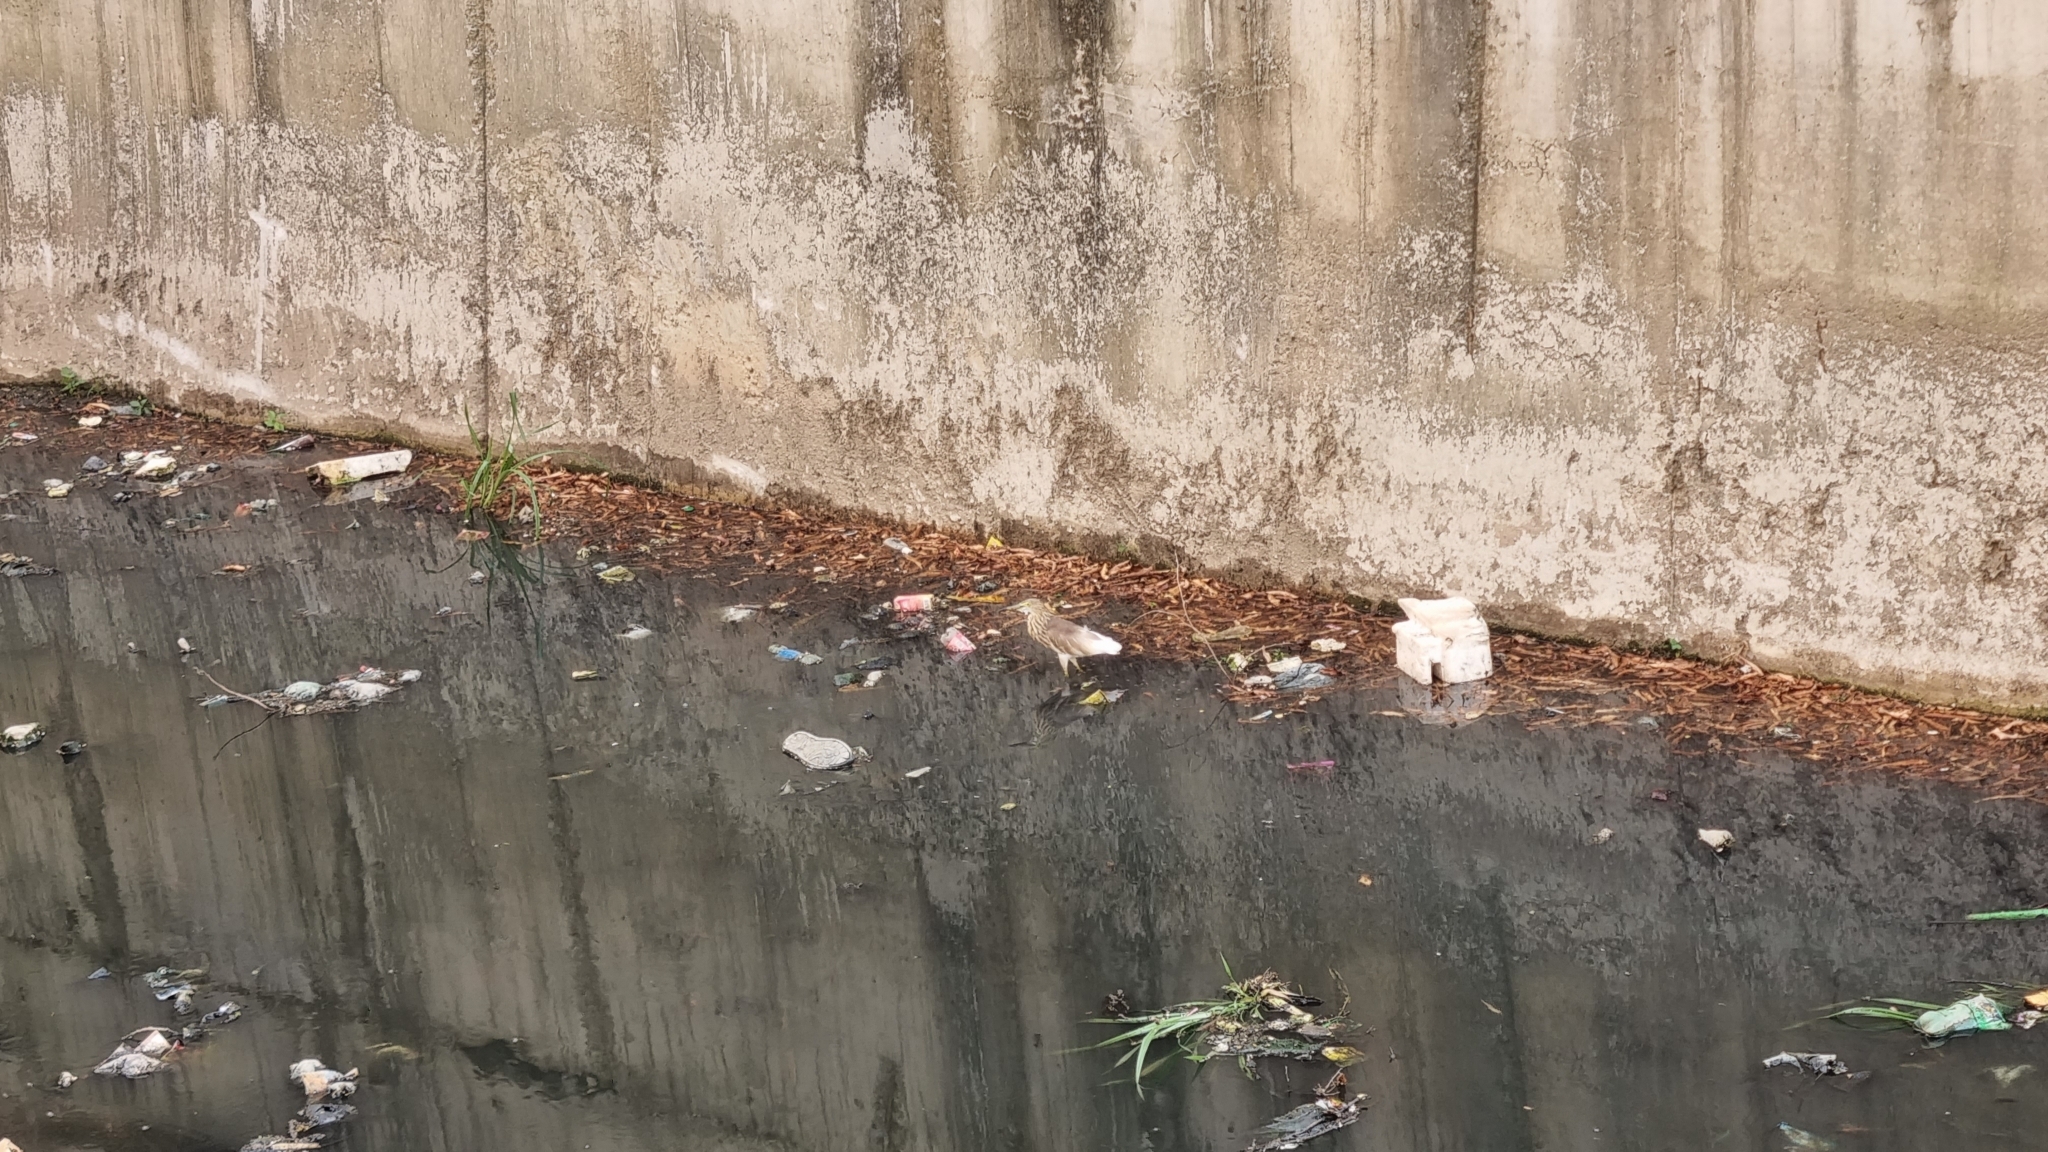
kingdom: Animalia
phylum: Chordata
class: Aves
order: Pelecaniformes
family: Ardeidae
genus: Ardeola
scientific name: Ardeola grayii
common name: Indian pond heron
